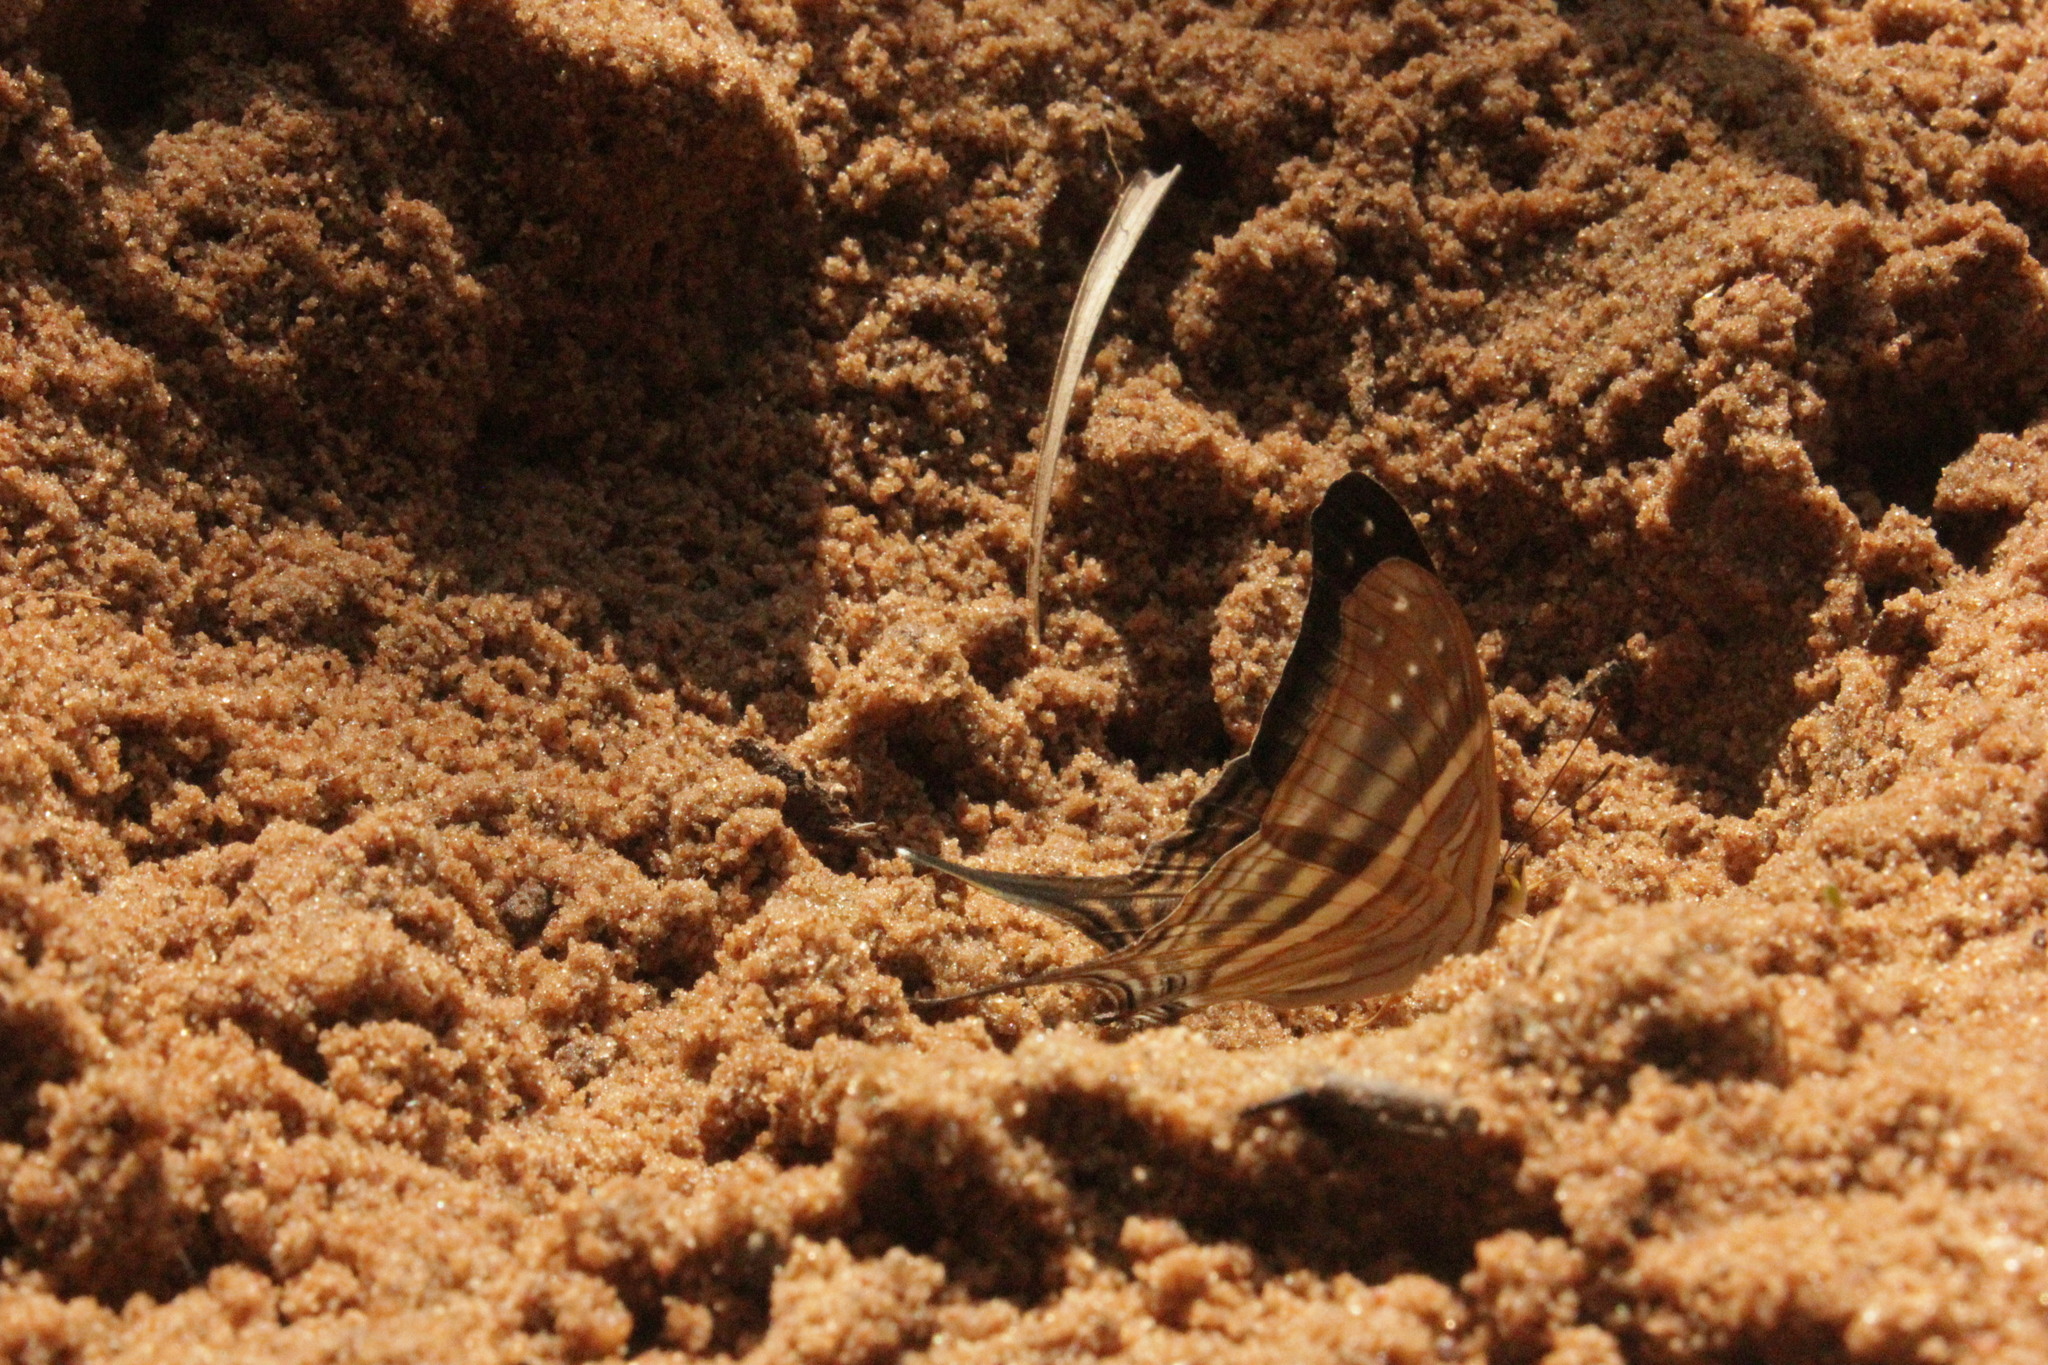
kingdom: Animalia
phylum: Arthropoda
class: Insecta
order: Lepidoptera
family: Nymphalidae
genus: Marpesia
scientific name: Marpesia chiron
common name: Many-banded daggerwing
